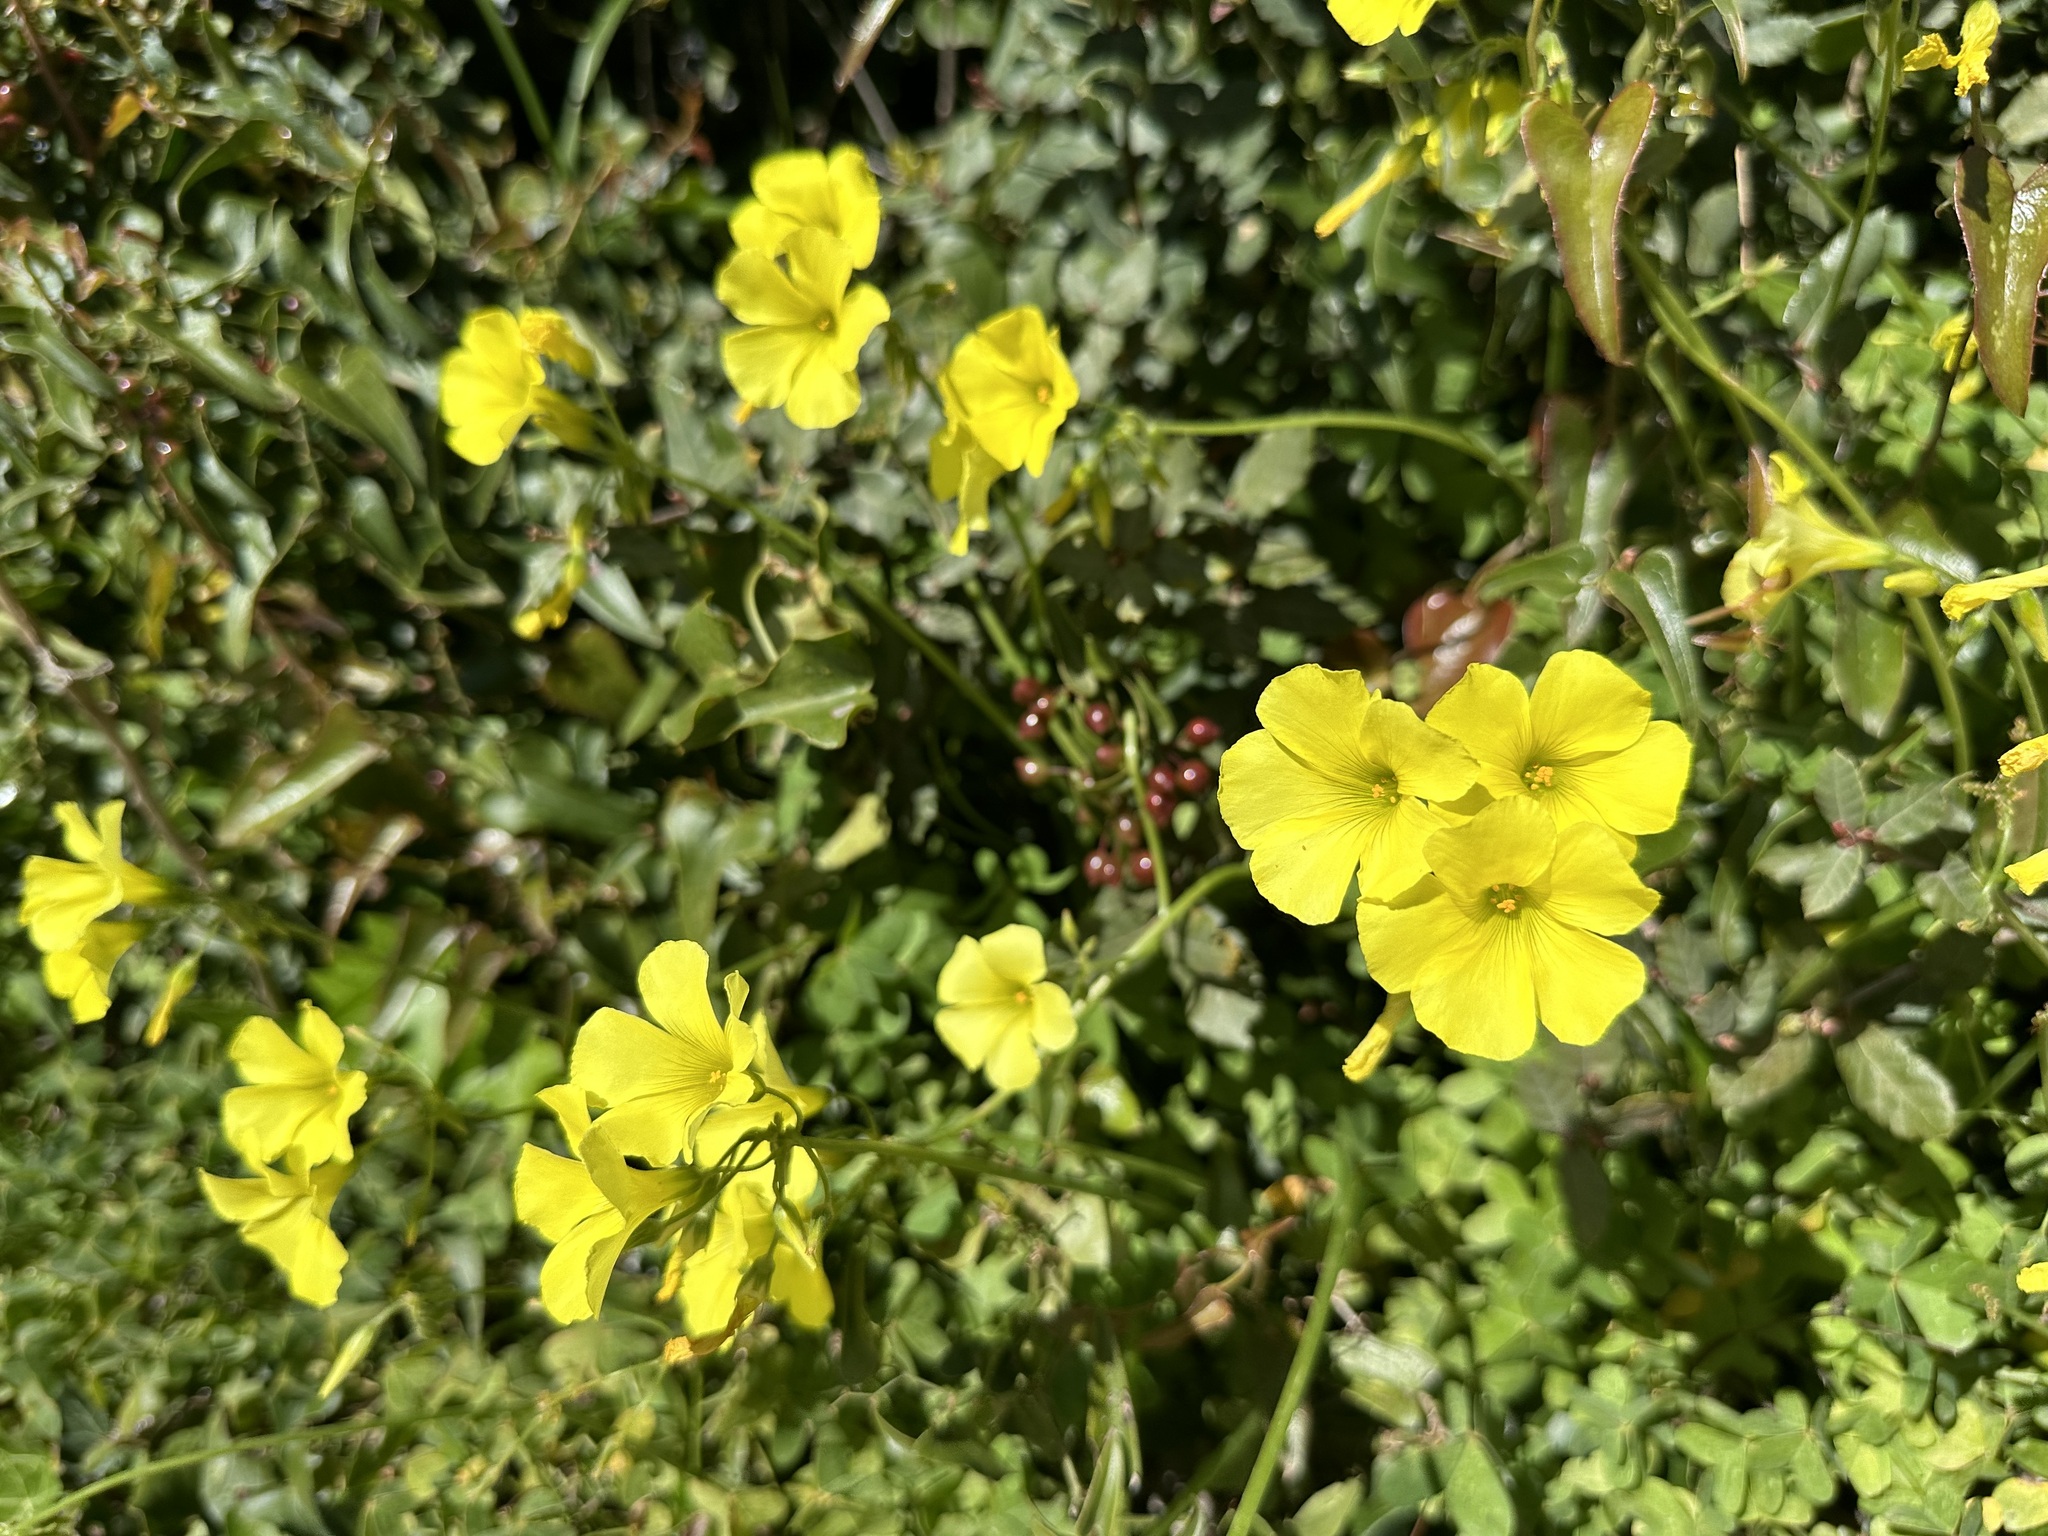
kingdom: Plantae
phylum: Tracheophyta
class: Magnoliopsida
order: Oxalidales
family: Oxalidaceae
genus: Oxalis
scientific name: Oxalis pes-caprae
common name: Bermuda-buttercup
